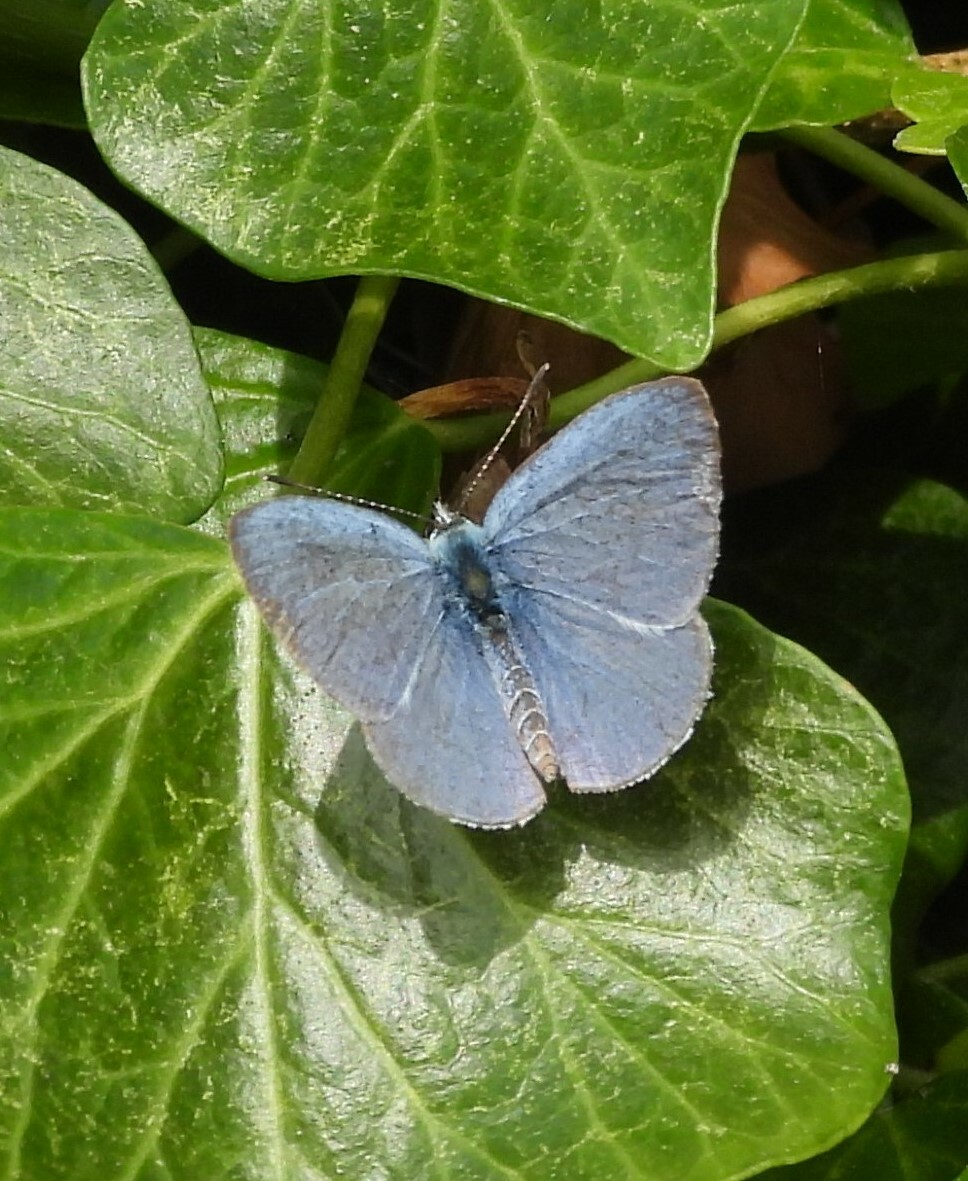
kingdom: Animalia
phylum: Arthropoda
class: Insecta
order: Lepidoptera
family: Lycaenidae
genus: Celastrina
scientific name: Celastrina argiolus
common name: Holly blue
